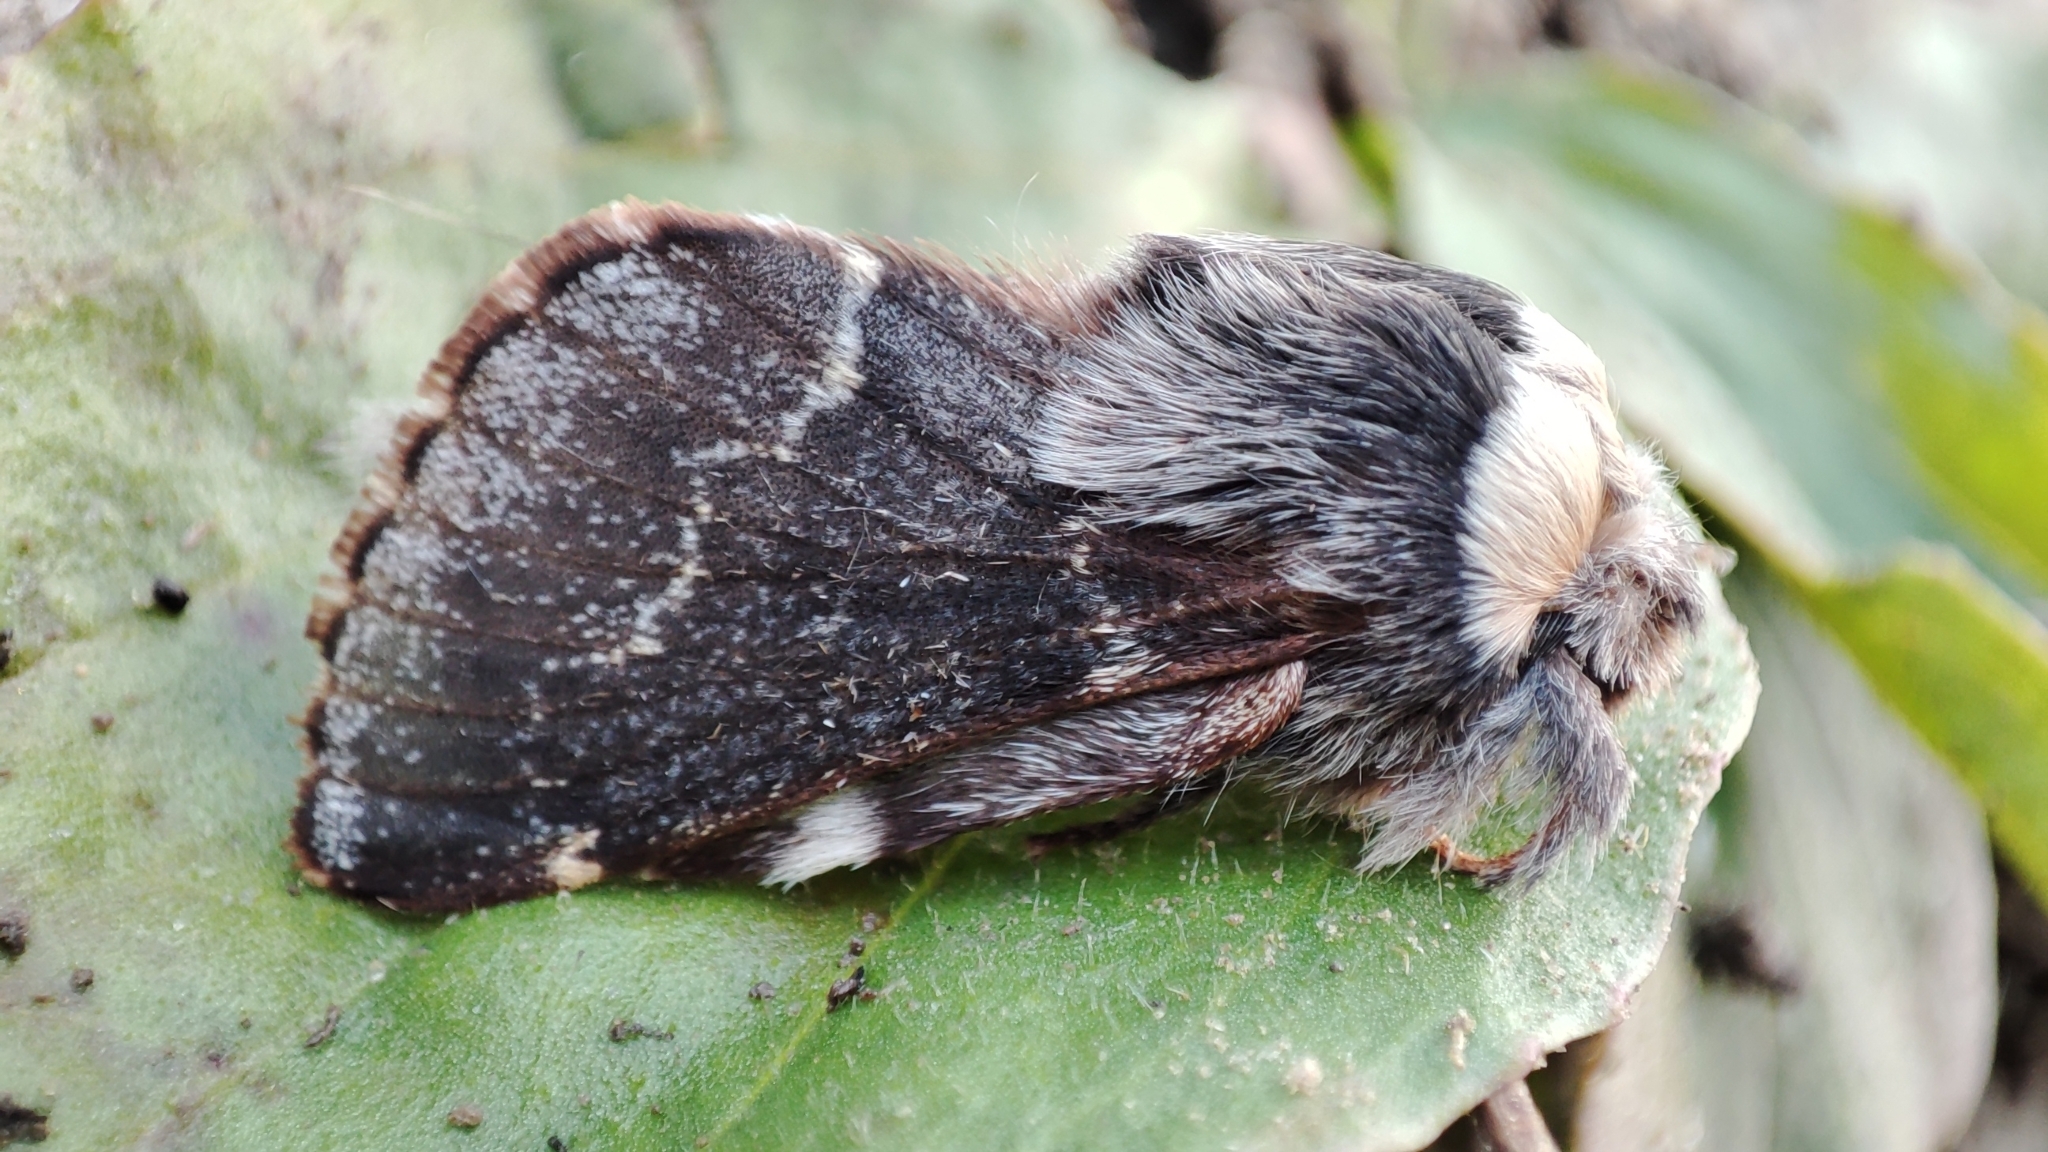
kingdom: Animalia
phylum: Arthropoda
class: Insecta
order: Lepidoptera
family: Lasiocampidae
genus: Poecilocampa
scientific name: Poecilocampa populi
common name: December moth
